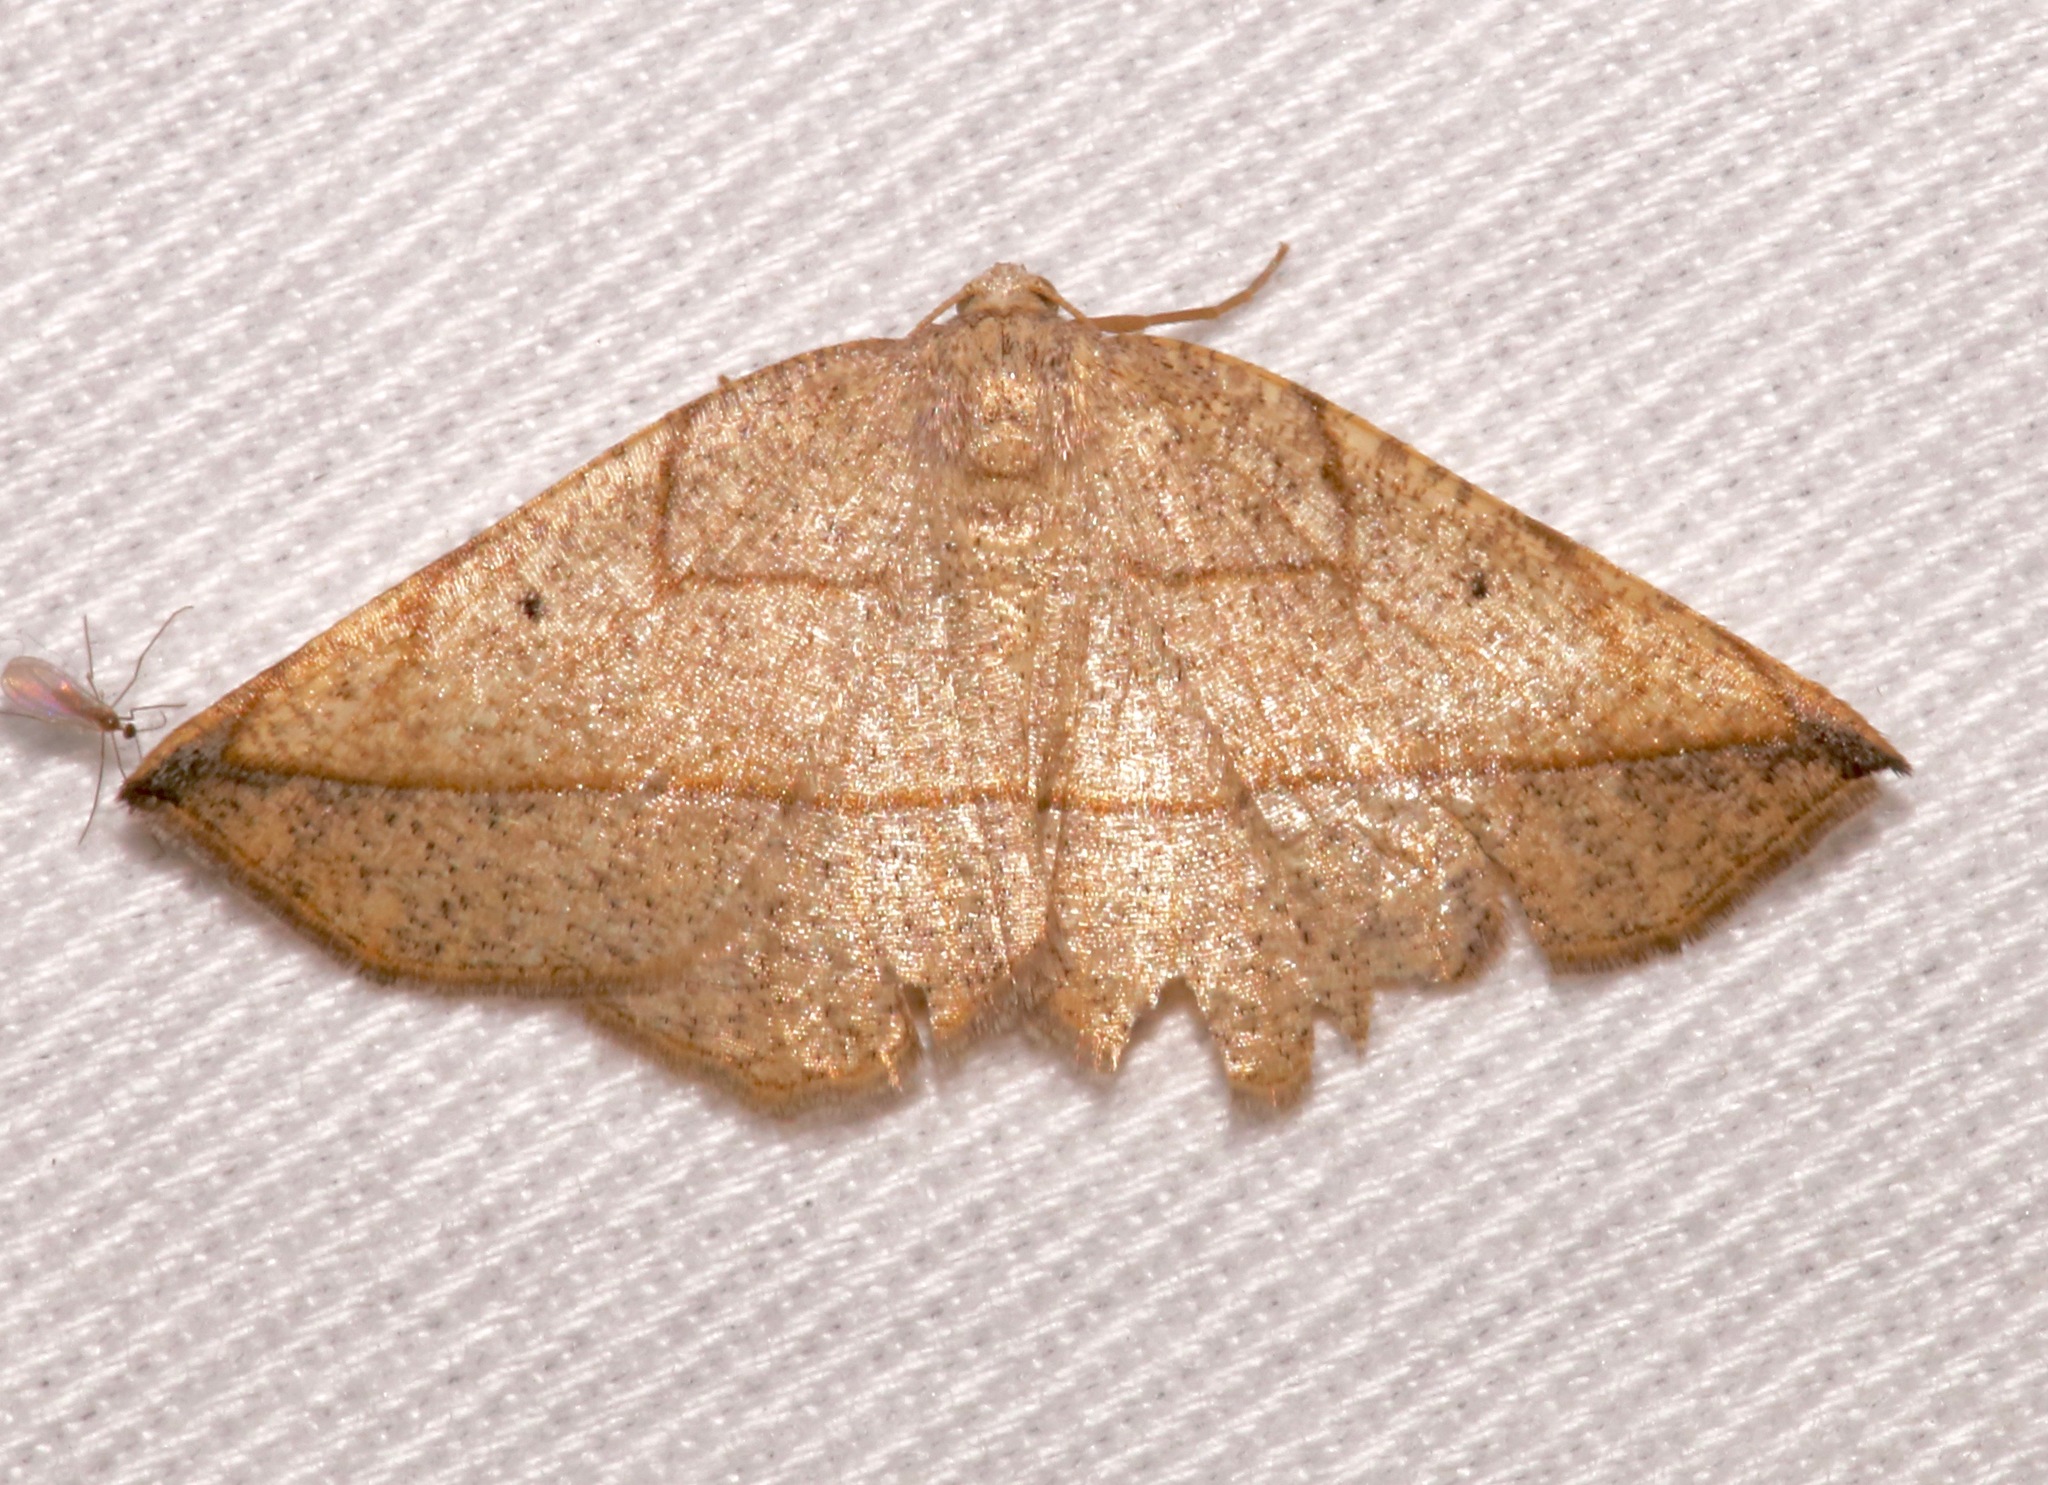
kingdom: Animalia
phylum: Arthropoda
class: Insecta
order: Lepidoptera
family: Geometridae
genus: Eusarca
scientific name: Eusarca geniculata
